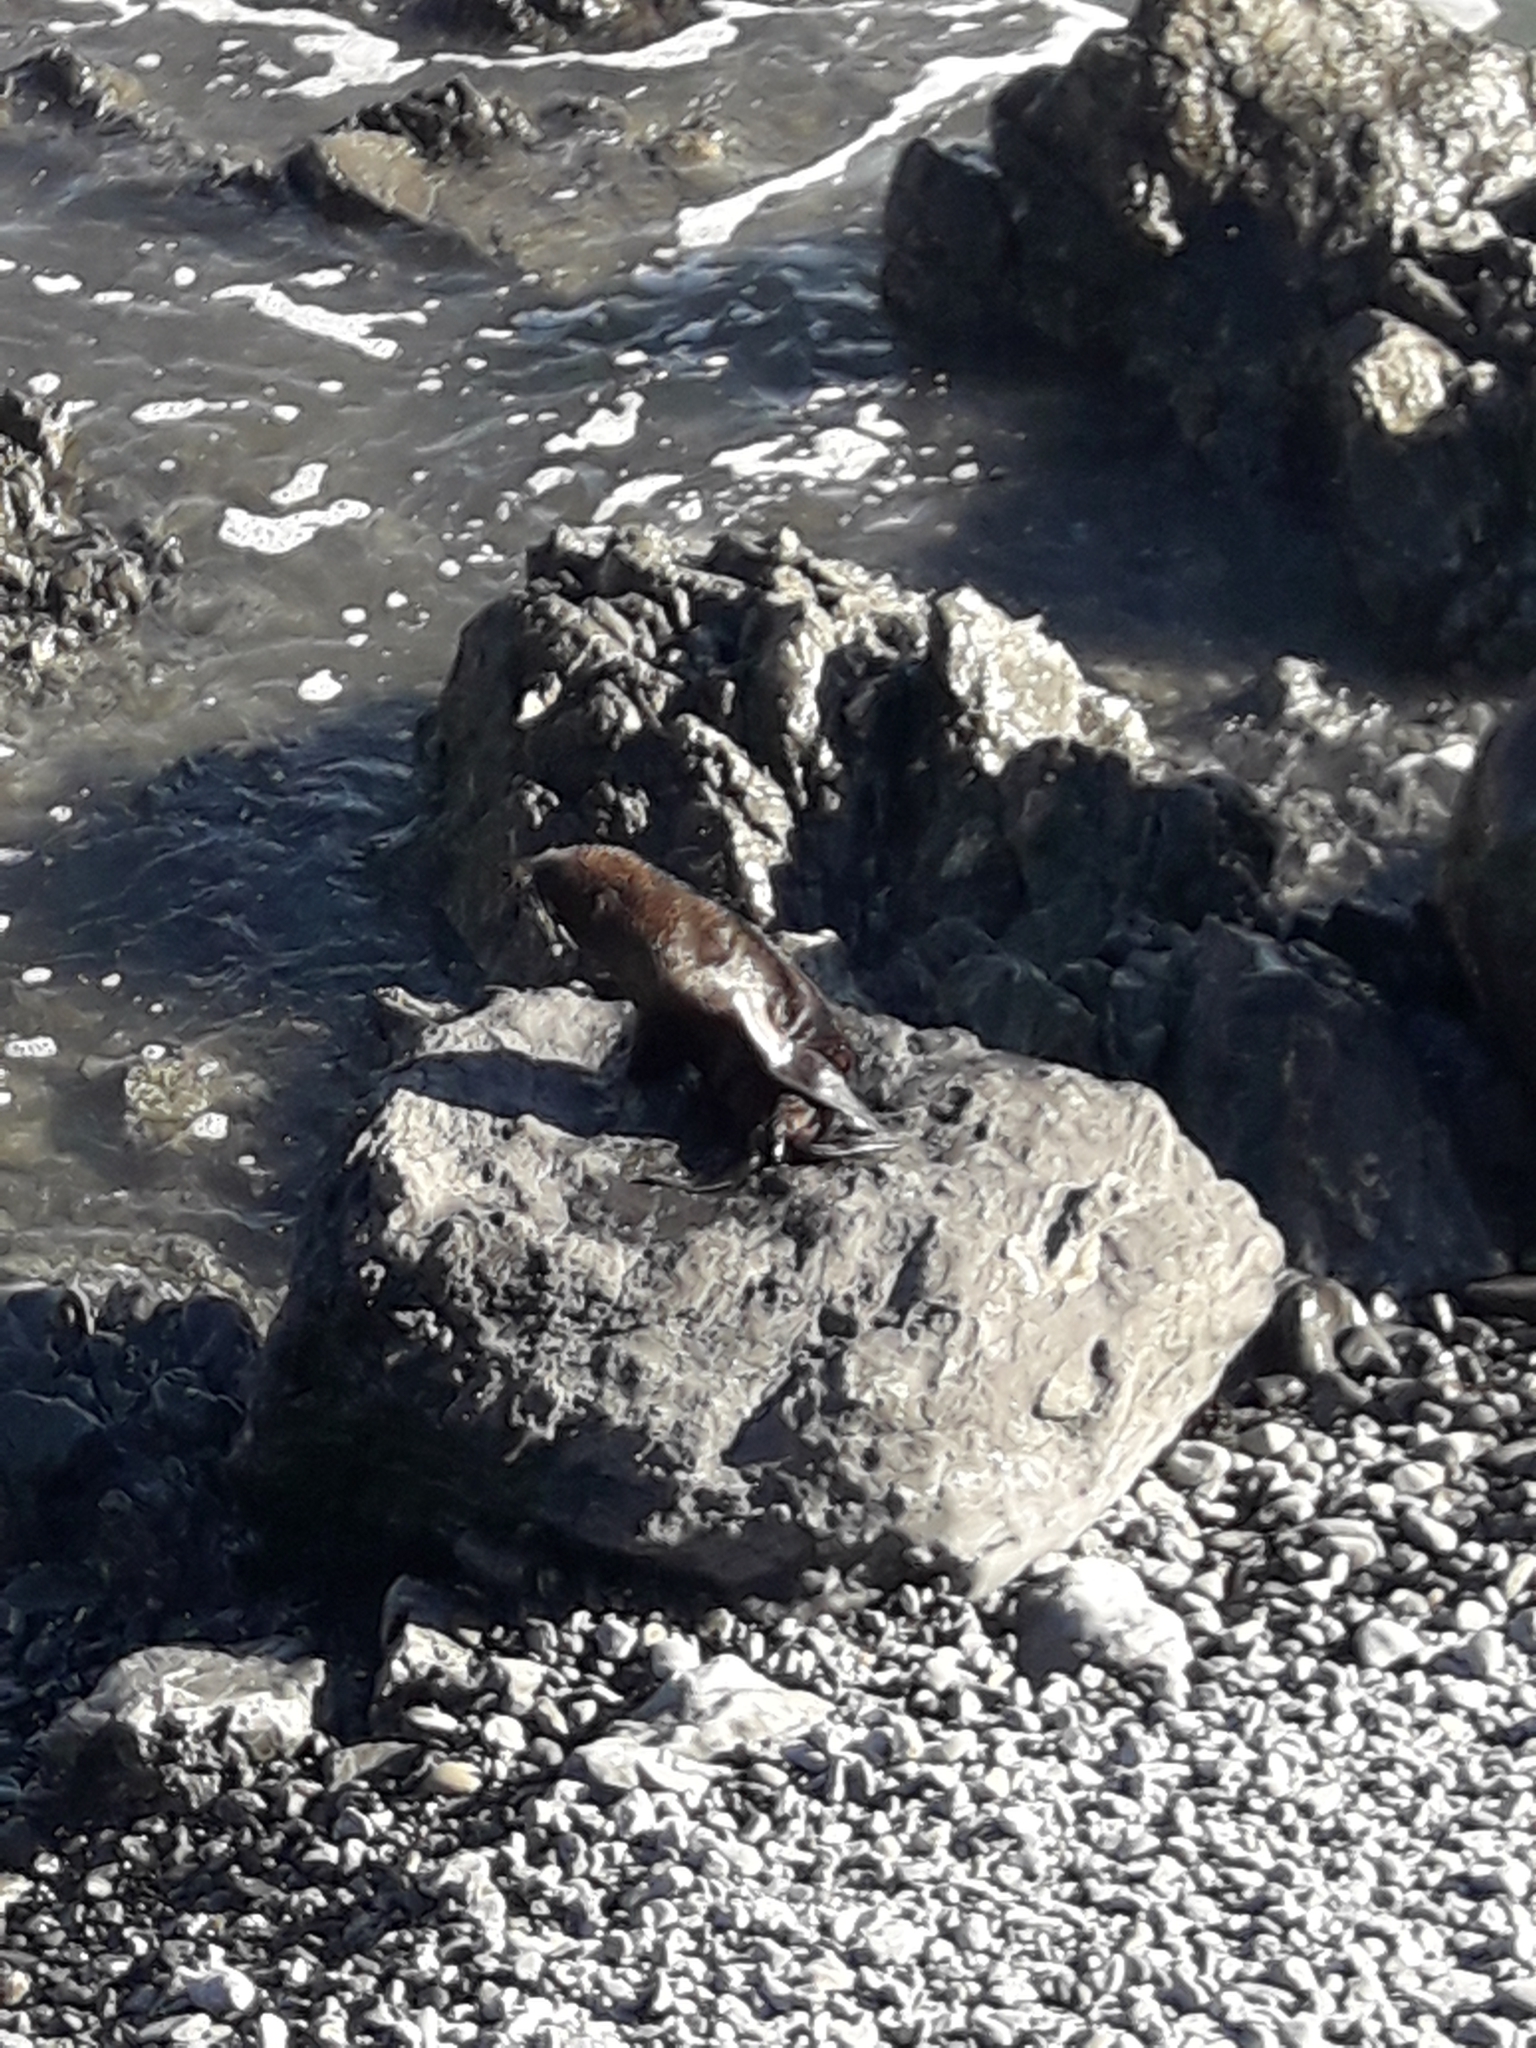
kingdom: Animalia
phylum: Chordata
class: Mammalia
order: Carnivora
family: Otariidae
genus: Arctocephalus
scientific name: Arctocephalus forsteri
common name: New zealand fur seal
